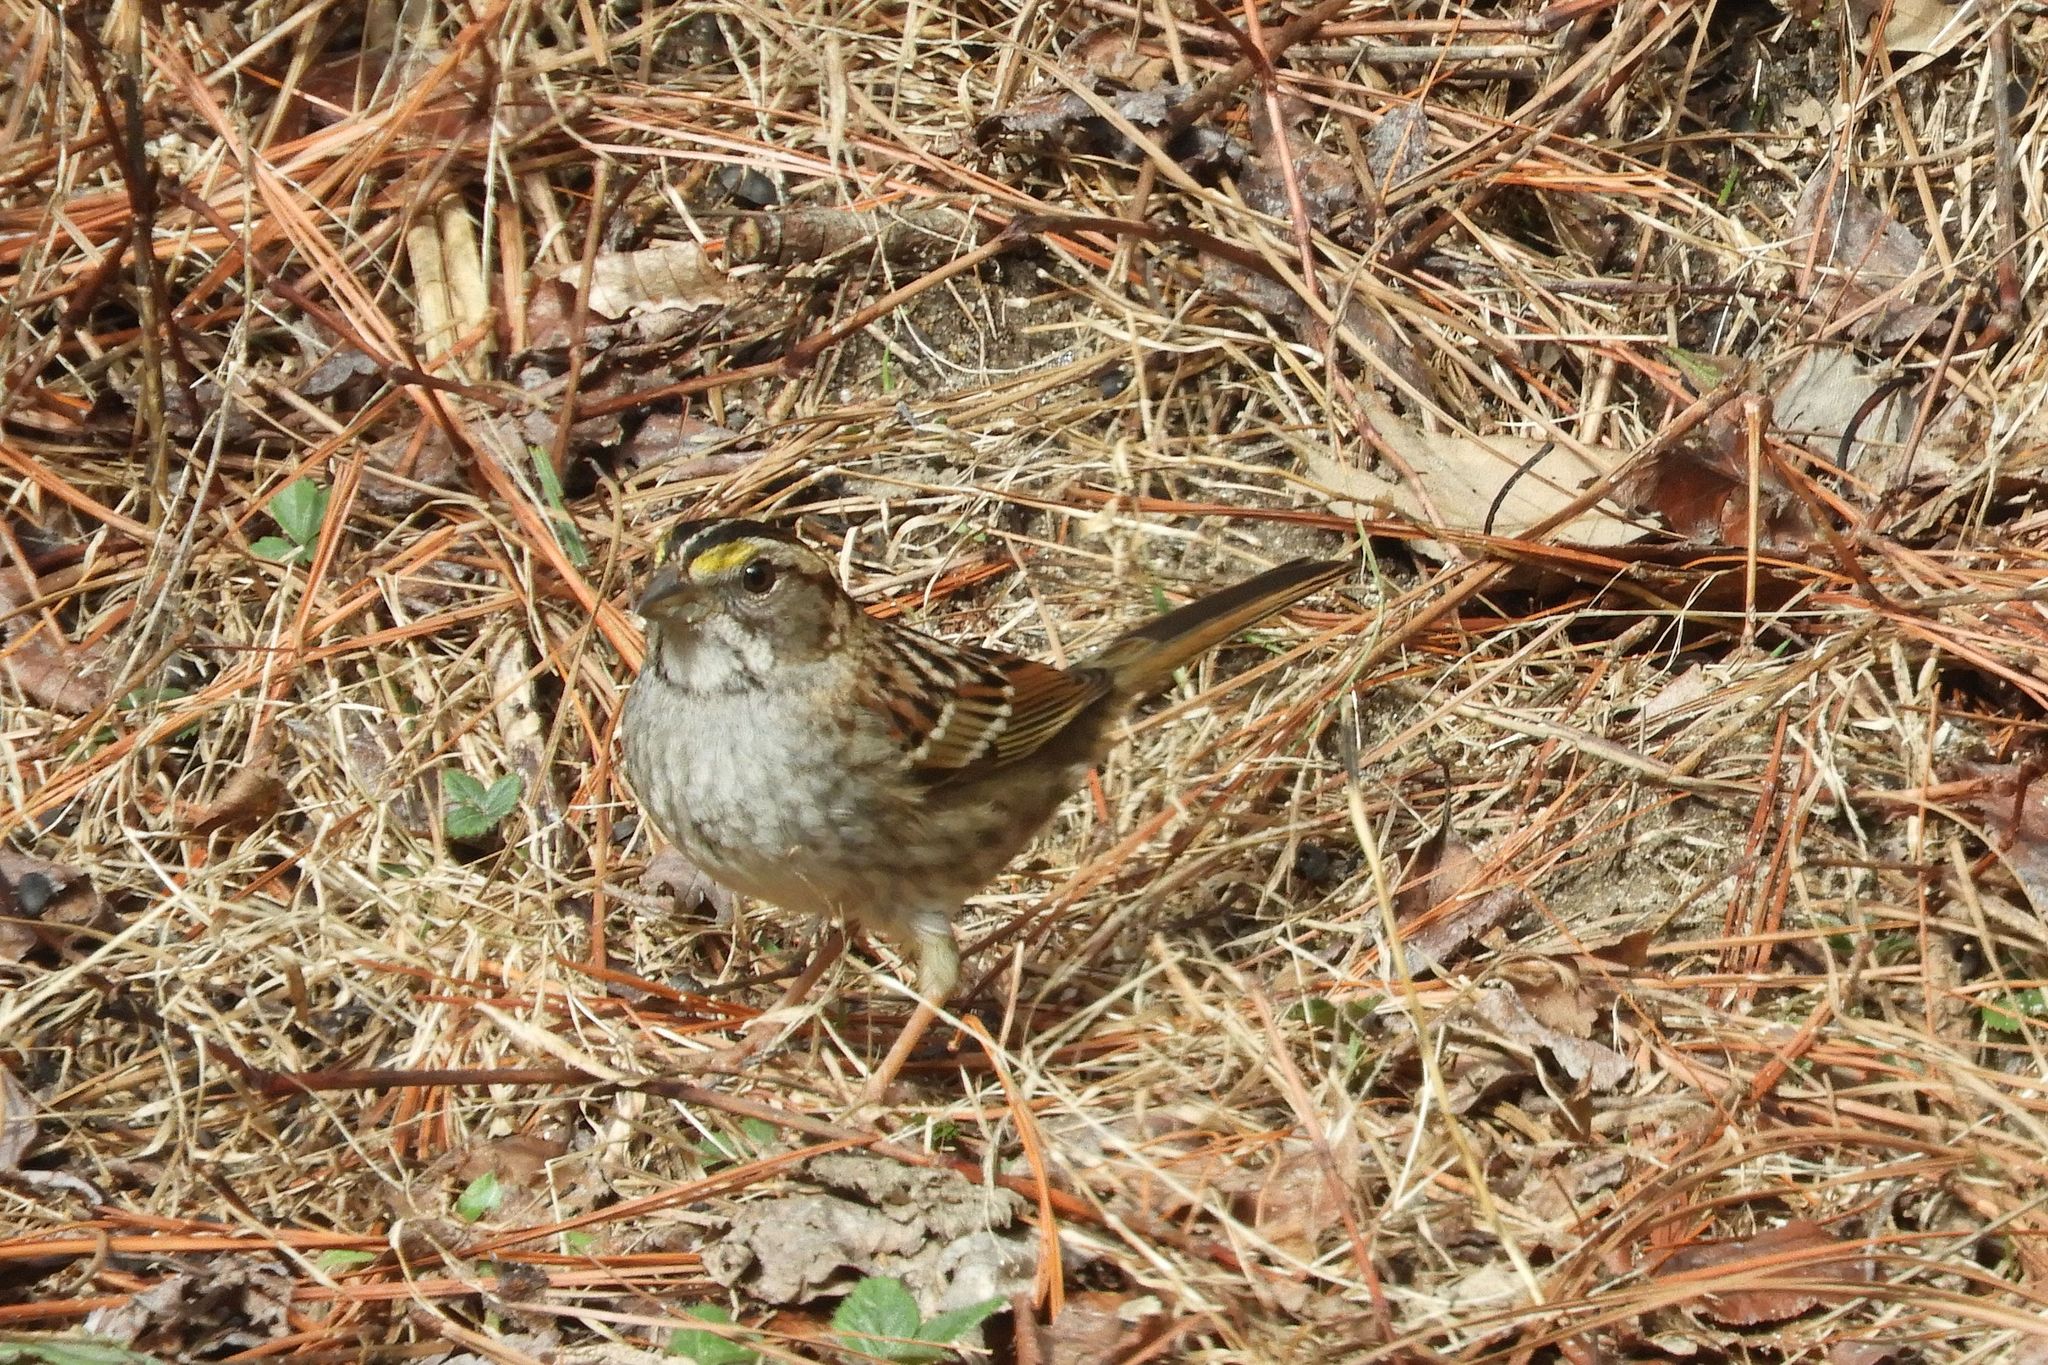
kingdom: Animalia
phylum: Chordata
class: Aves
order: Passeriformes
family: Passerellidae
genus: Zonotrichia
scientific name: Zonotrichia albicollis
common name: White-throated sparrow
